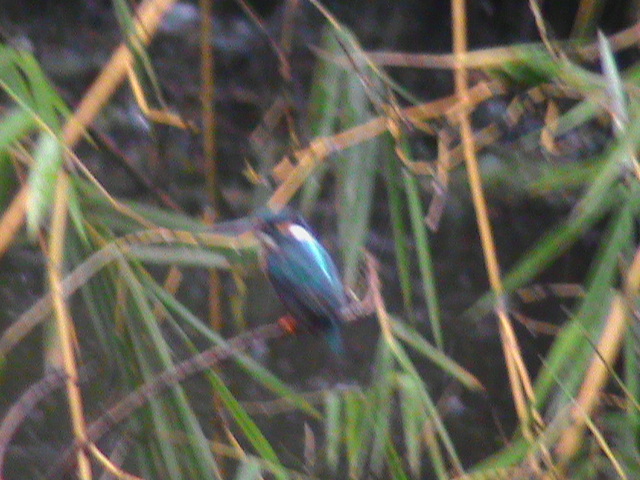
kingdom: Animalia
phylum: Chordata
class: Aves
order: Coraciiformes
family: Alcedinidae
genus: Alcedo
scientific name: Alcedo atthis
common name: Common kingfisher
